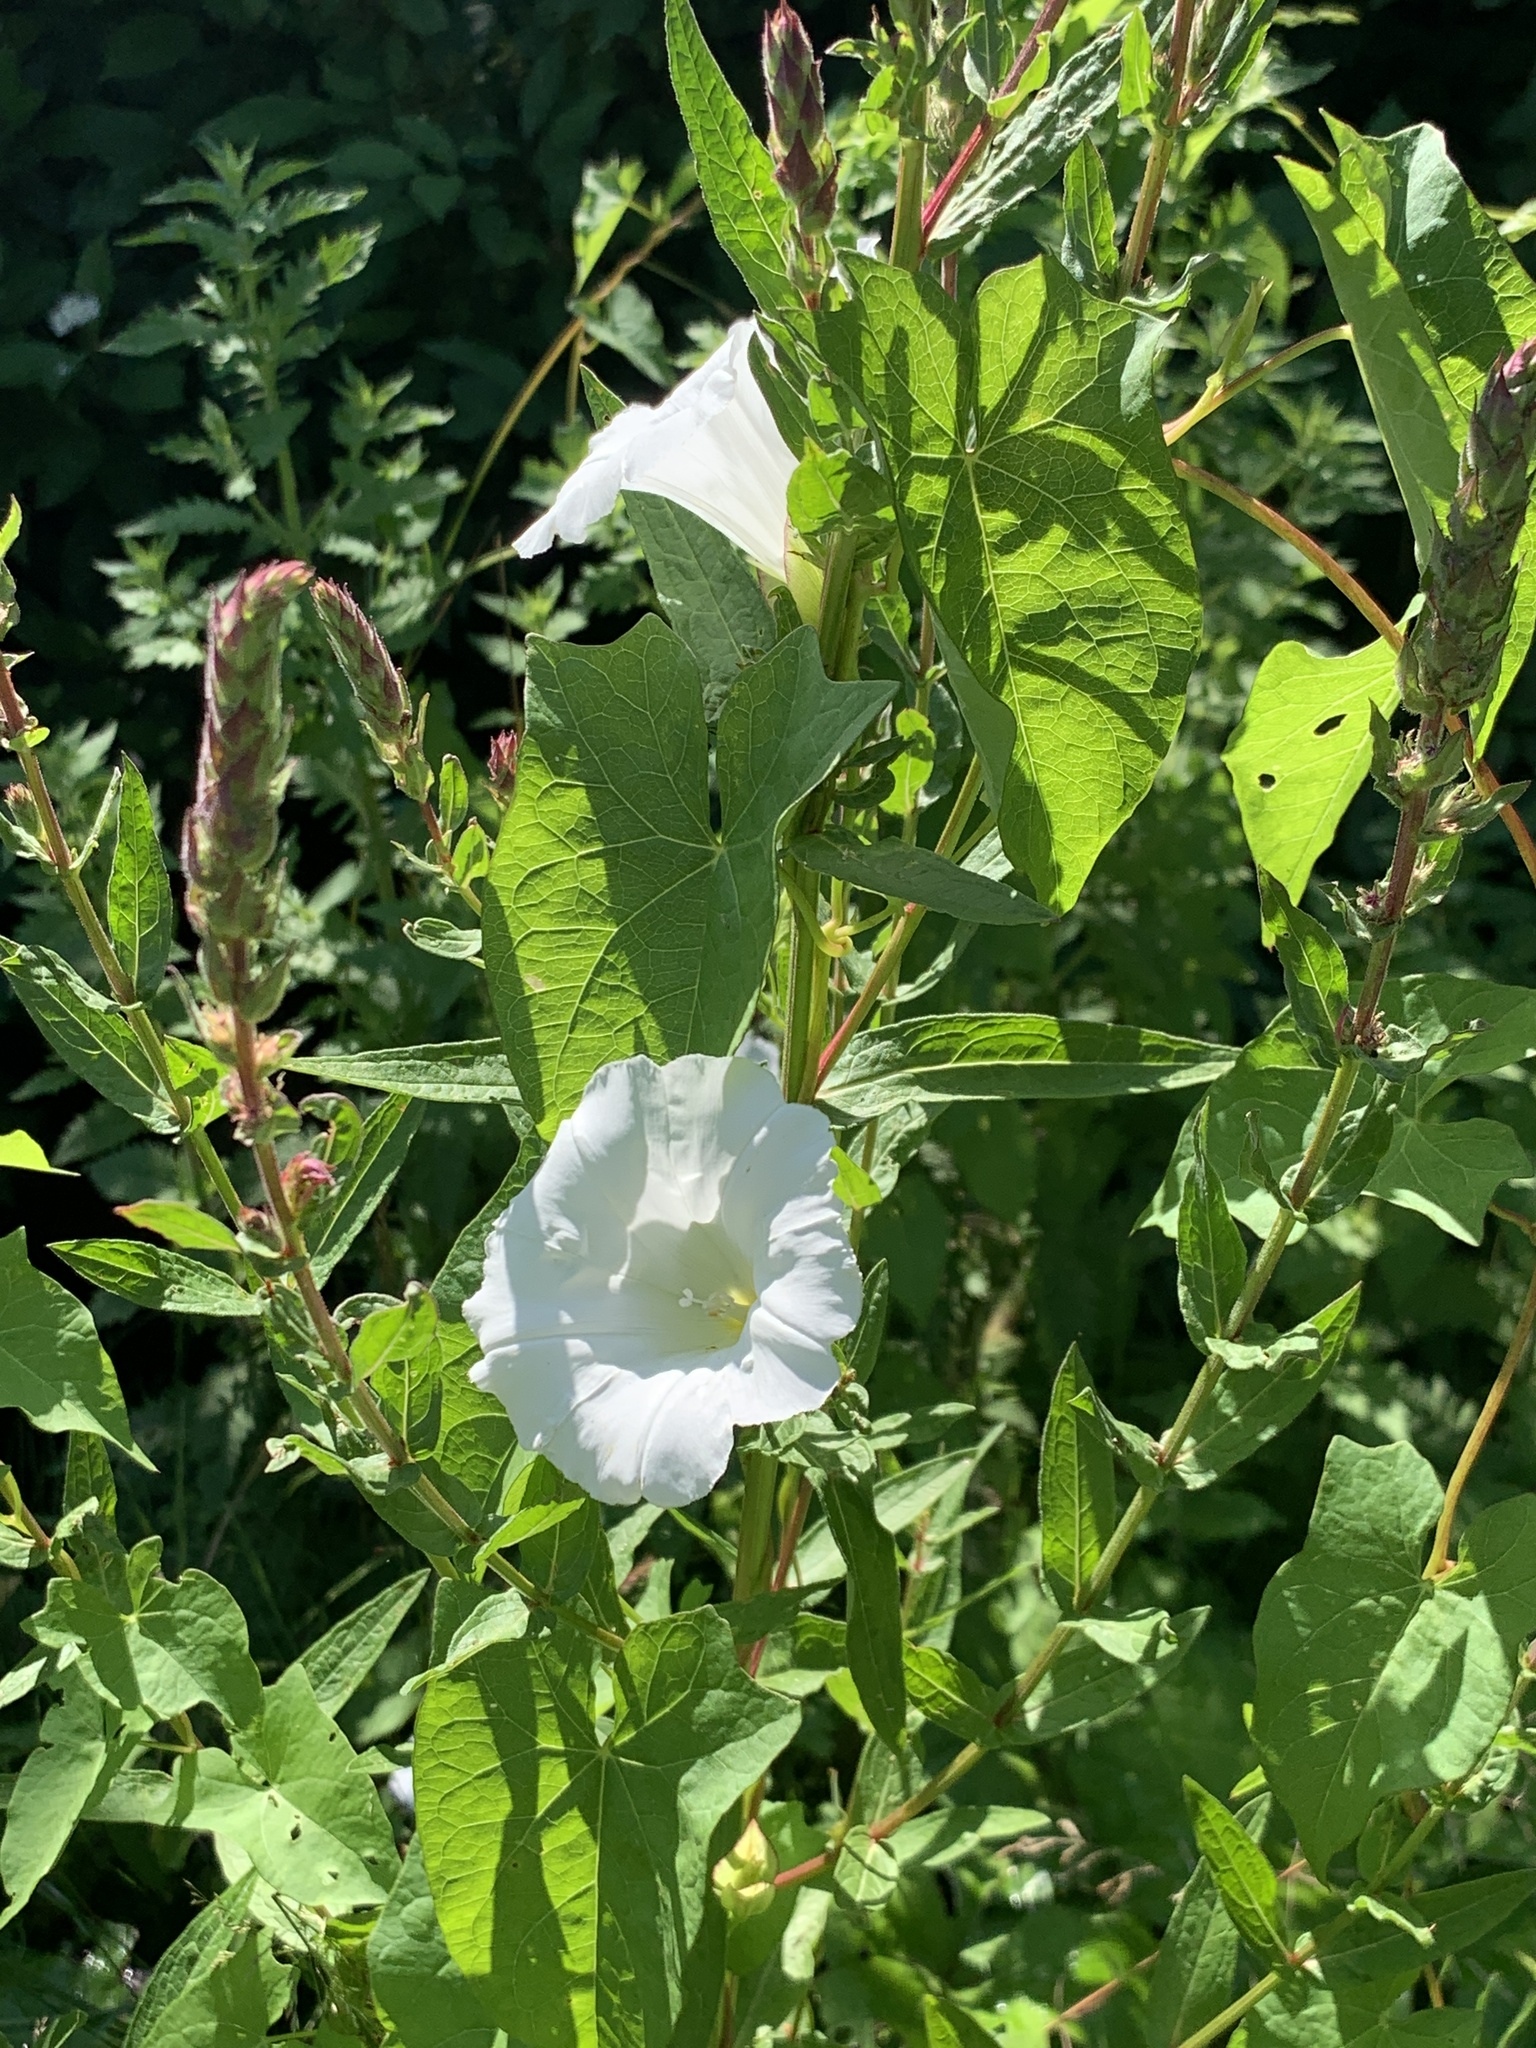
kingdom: Plantae
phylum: Tracheophyta
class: Magnoliopsida
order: Solanales
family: Convolvulaceae
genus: Calystegia
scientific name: Calystegia sepium
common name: Hedge bindweed
